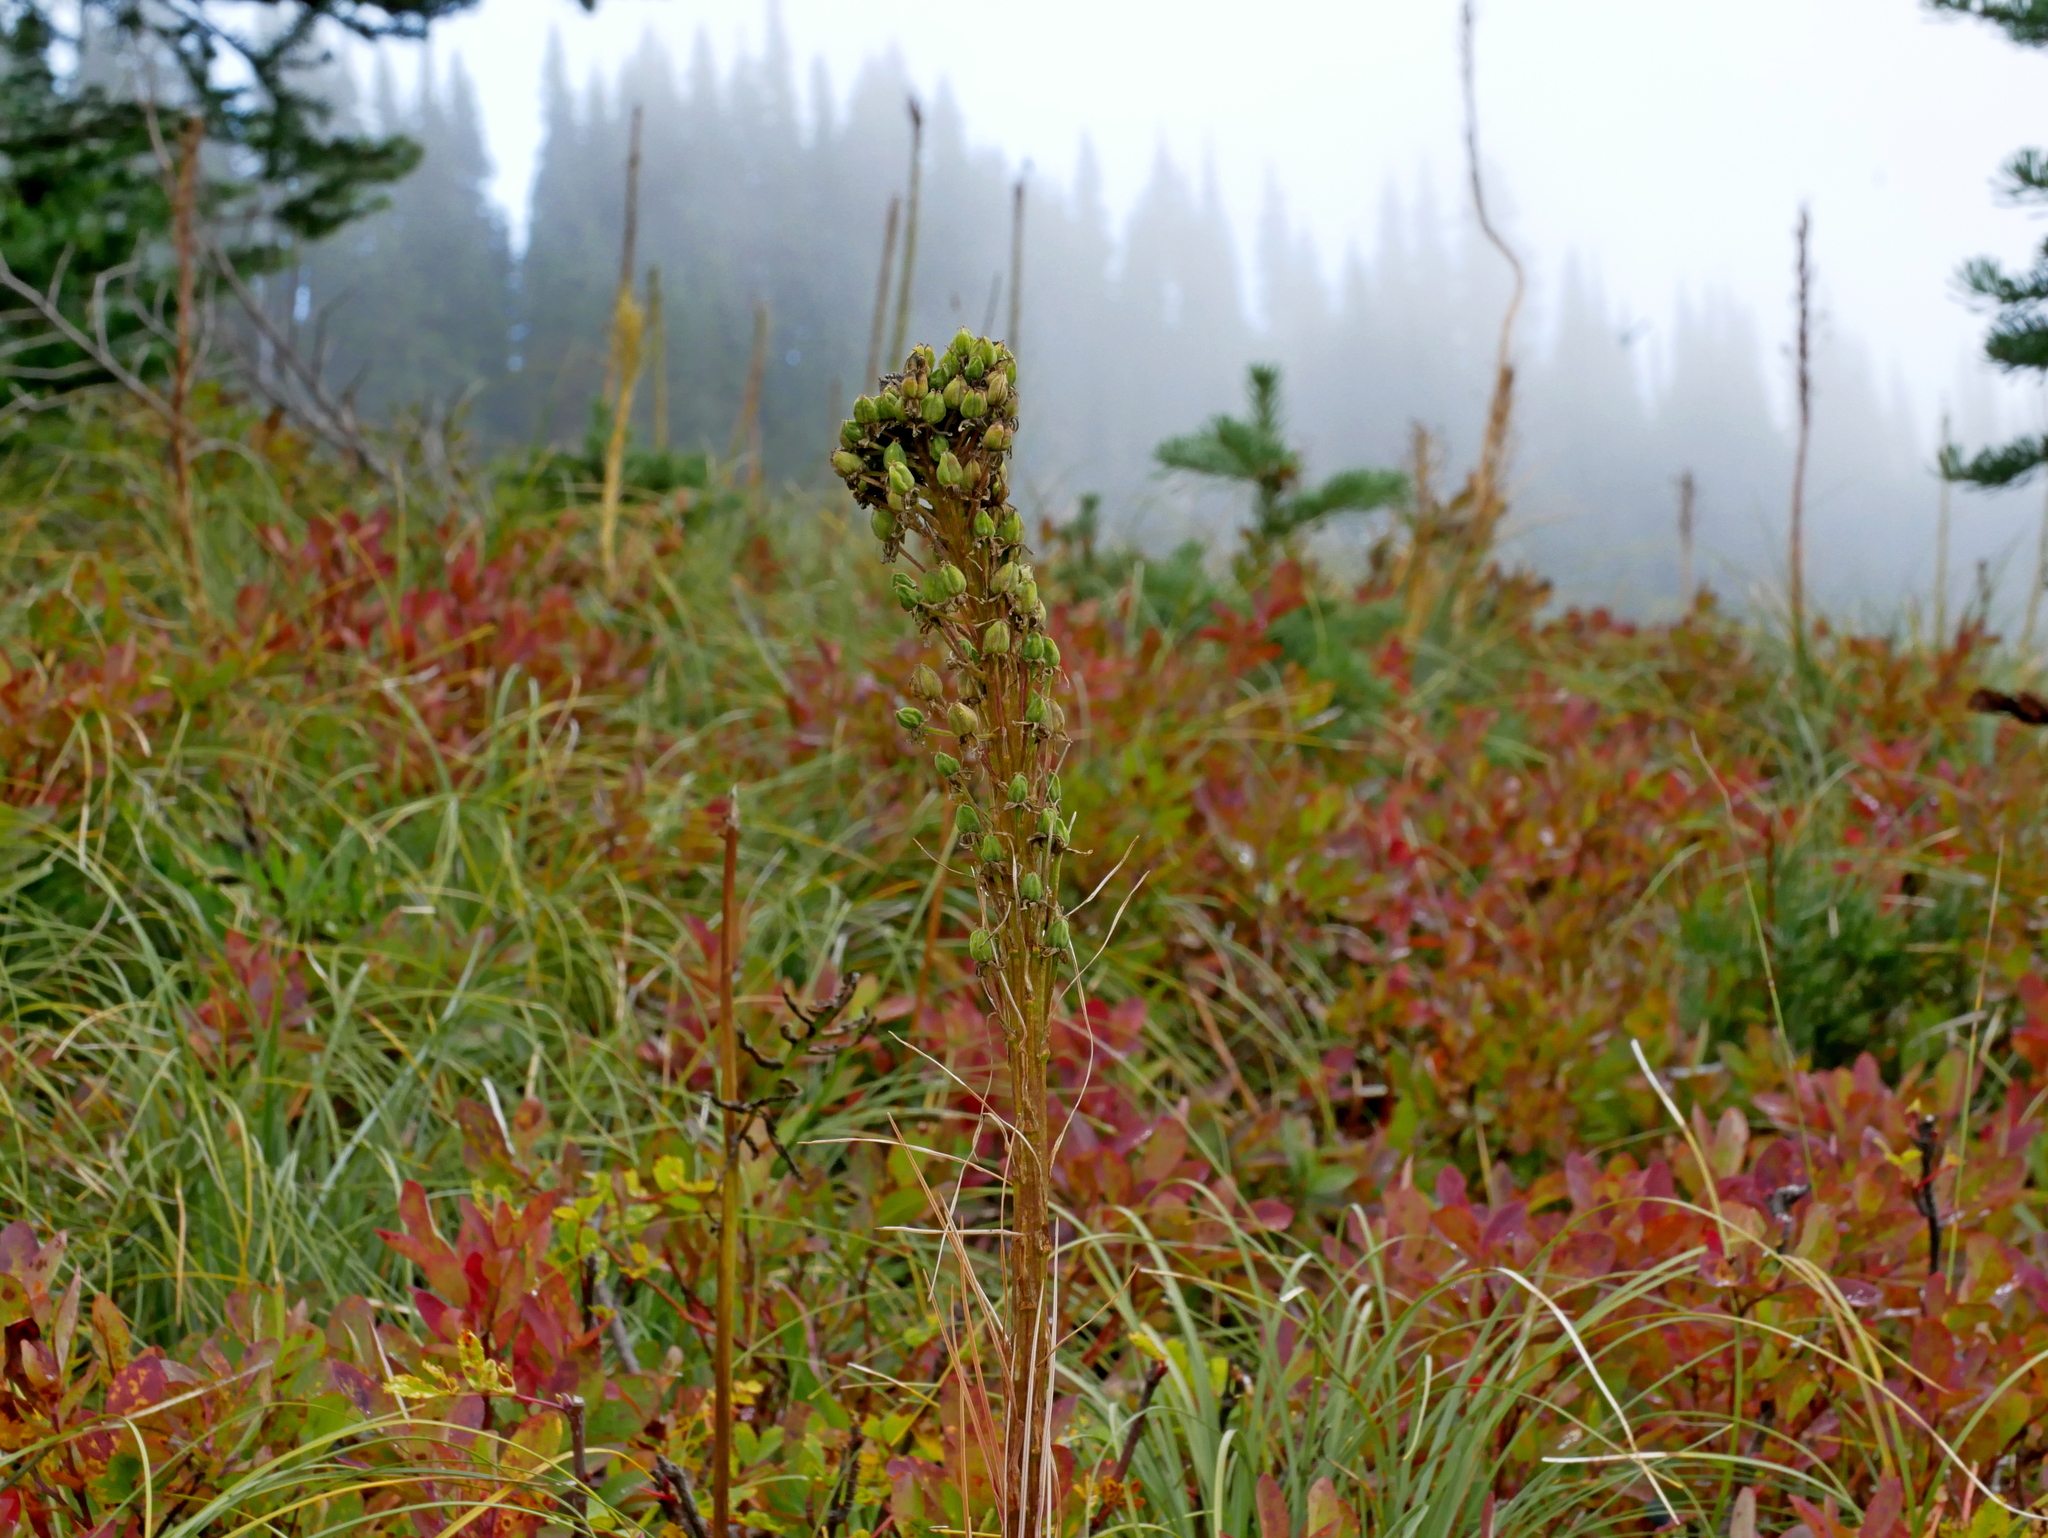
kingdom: Plantae
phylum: Tracheophyta
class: Liliopsida
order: Liliales
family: Melanthiaceae
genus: Xerophyllum
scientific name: Xerophyllum tenax
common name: Bear-grass
